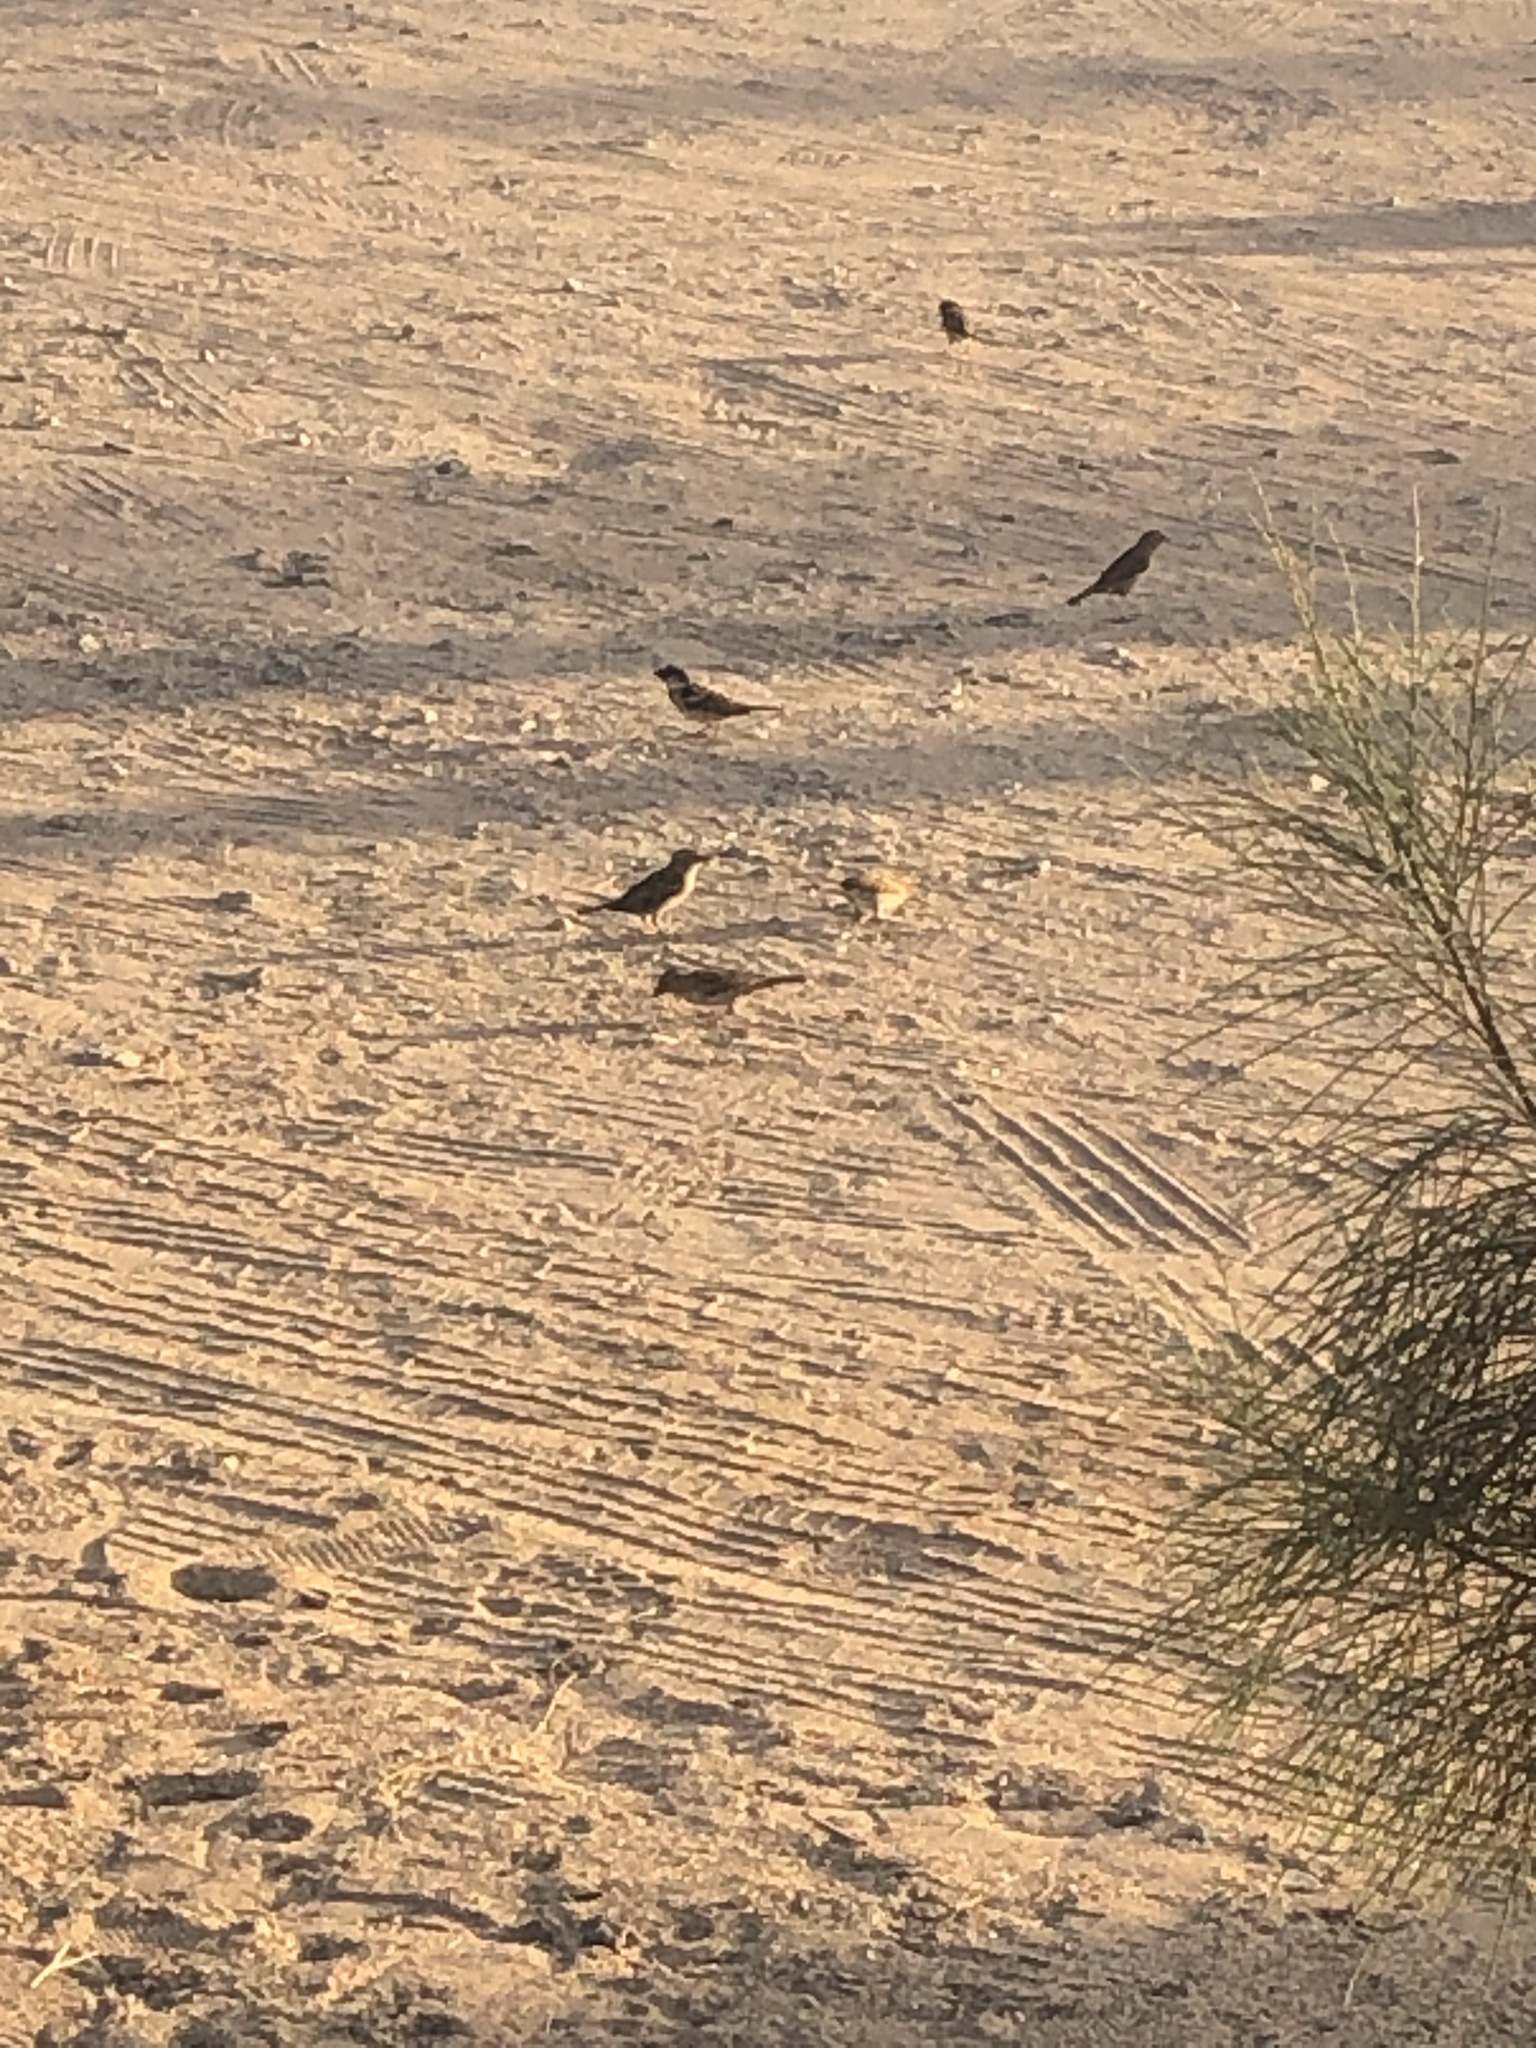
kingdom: Animalia
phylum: Chordata
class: Aves
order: Passeriformes
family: Passeridae
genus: Passer
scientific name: Passer domesticus
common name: House sparrow
